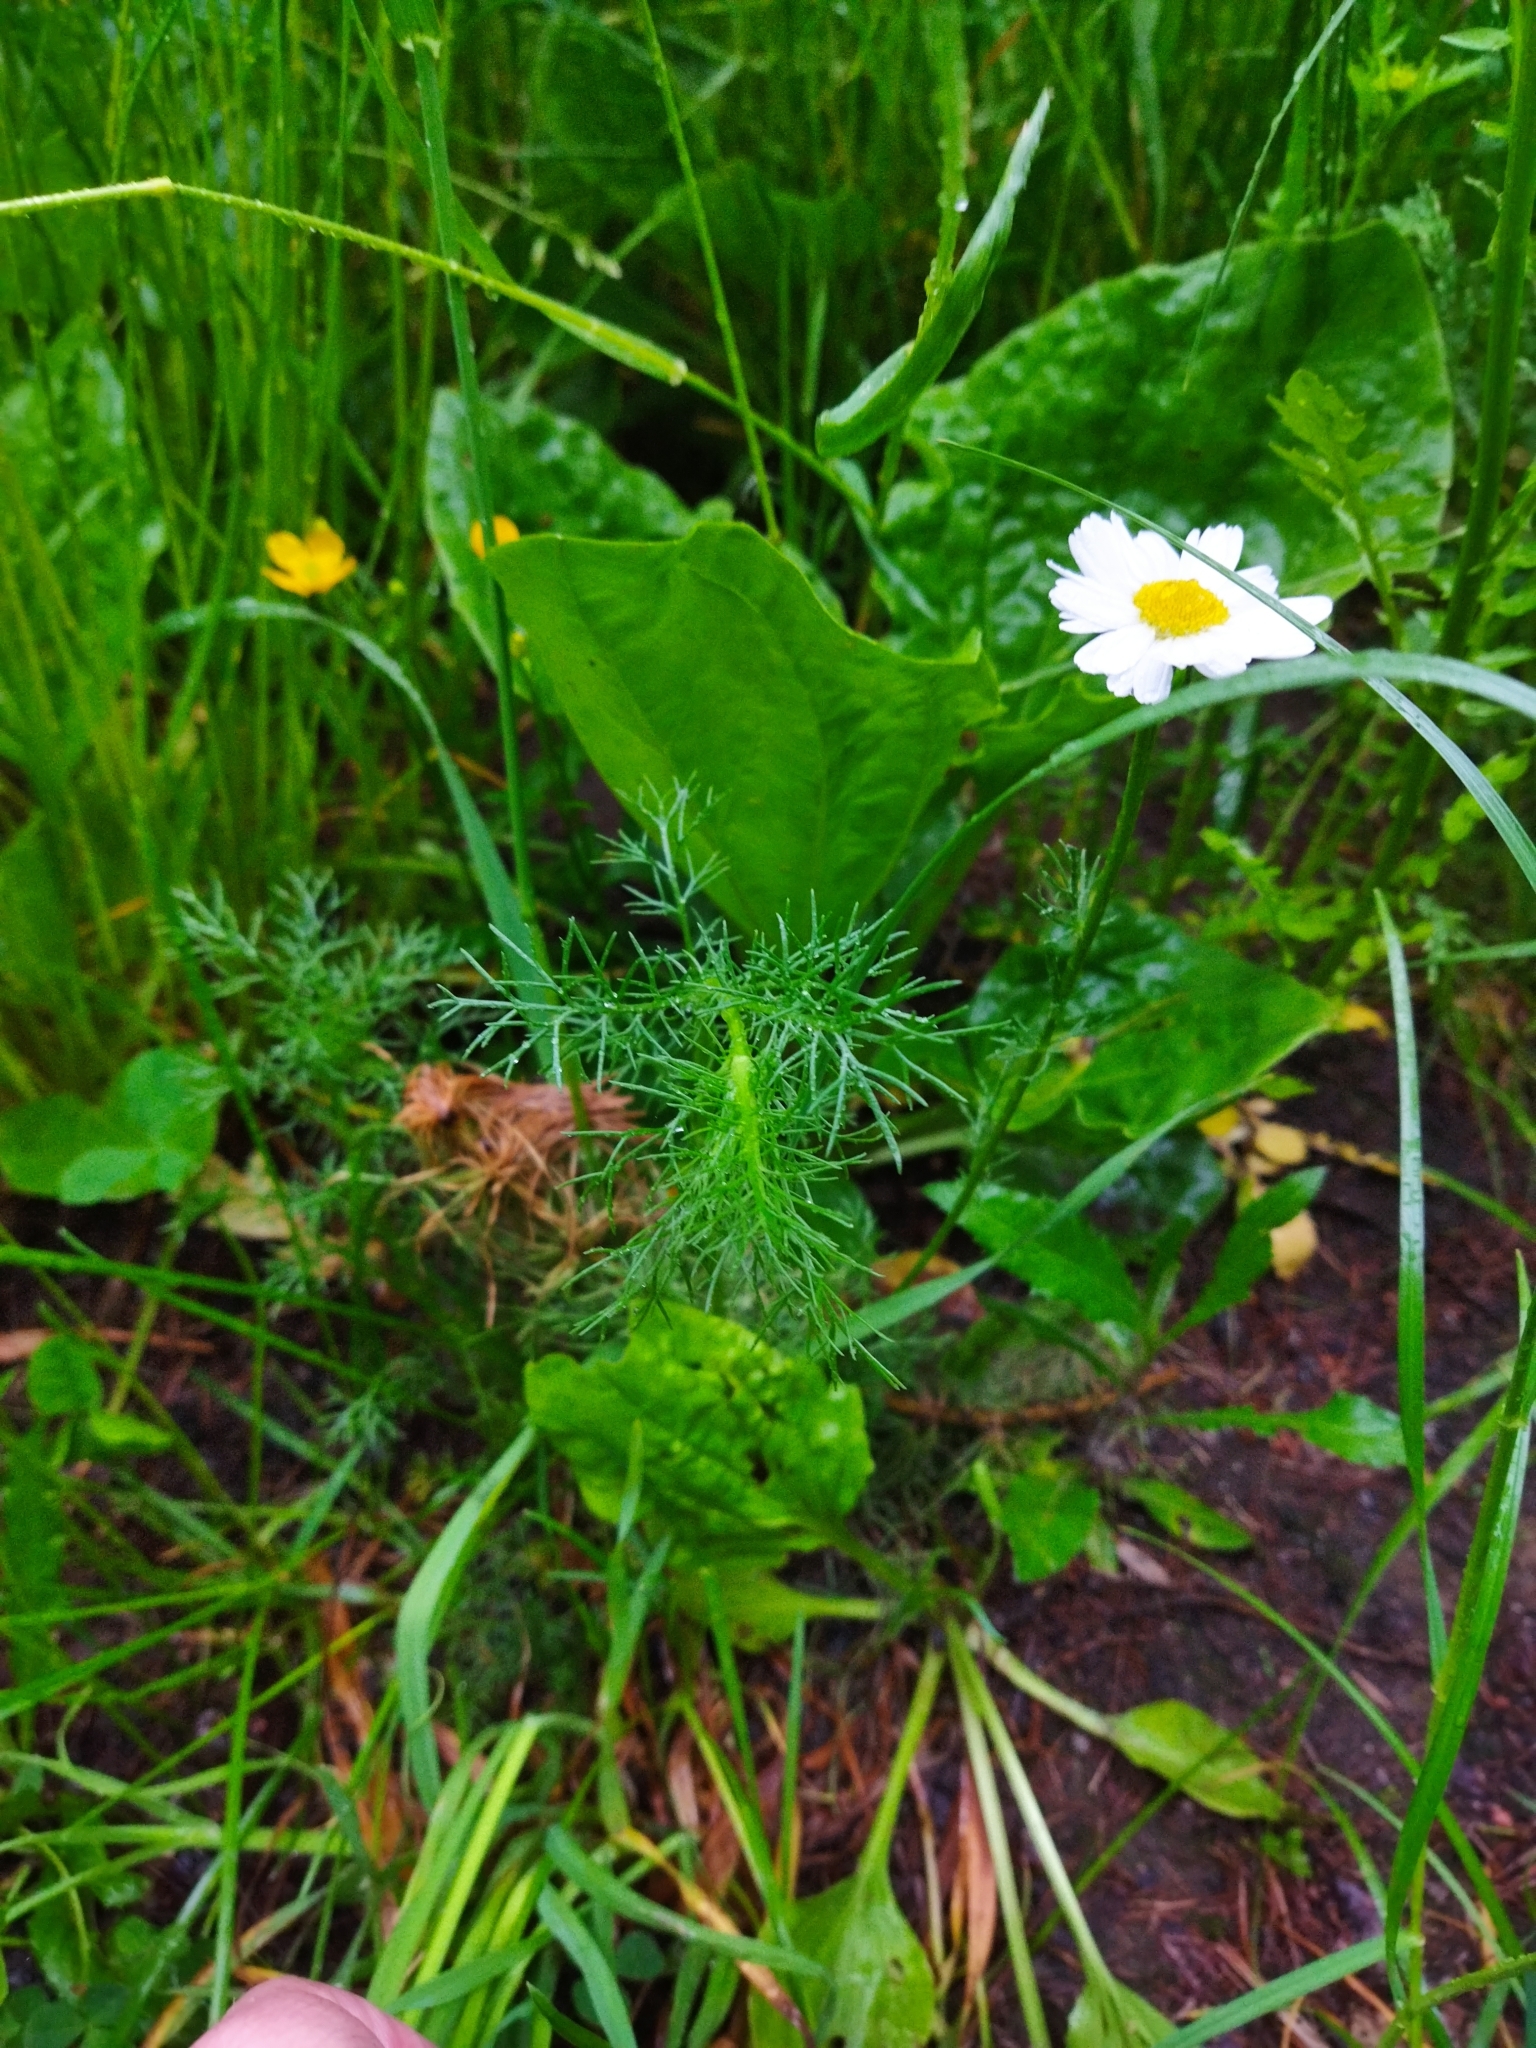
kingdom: Plantae
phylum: Tracheophyta
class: Magnoliopsida
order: Asterales
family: Asteraceae
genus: Tripleurospermum
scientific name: Tripleurospermum inodorum
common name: Scentless mayweed
